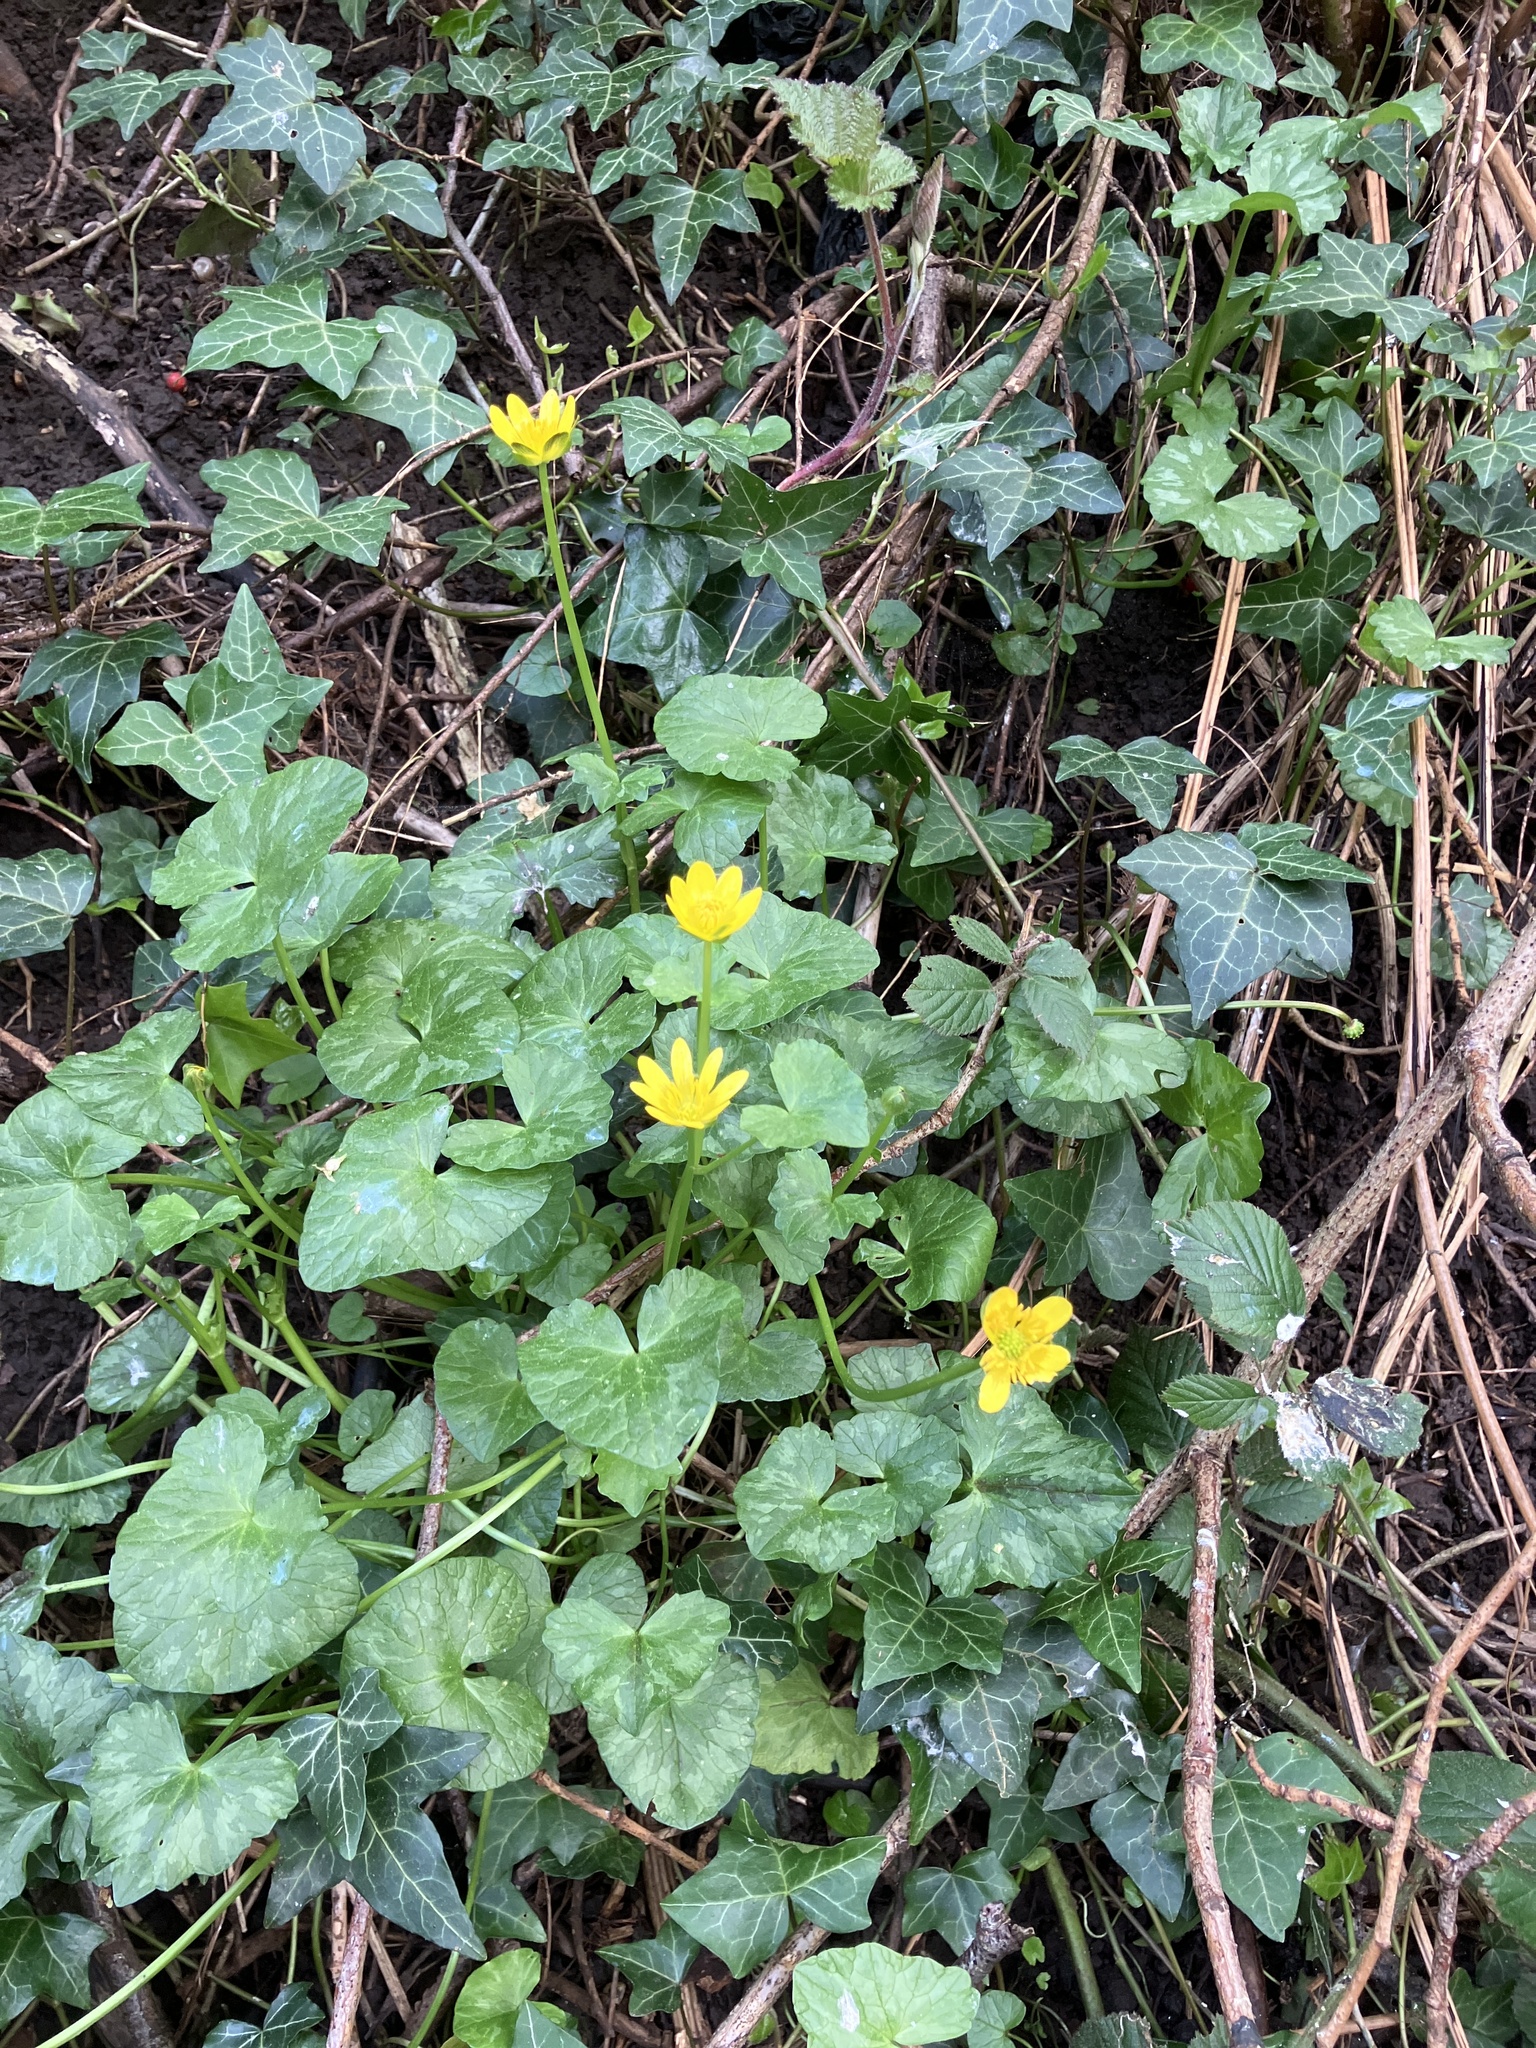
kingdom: Plantae
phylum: Tracheophyta
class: Magnoliopsida
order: Ranunculales
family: Ranunculaceae
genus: Ficaria
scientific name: Ficaria verna
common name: Lesser celandine
